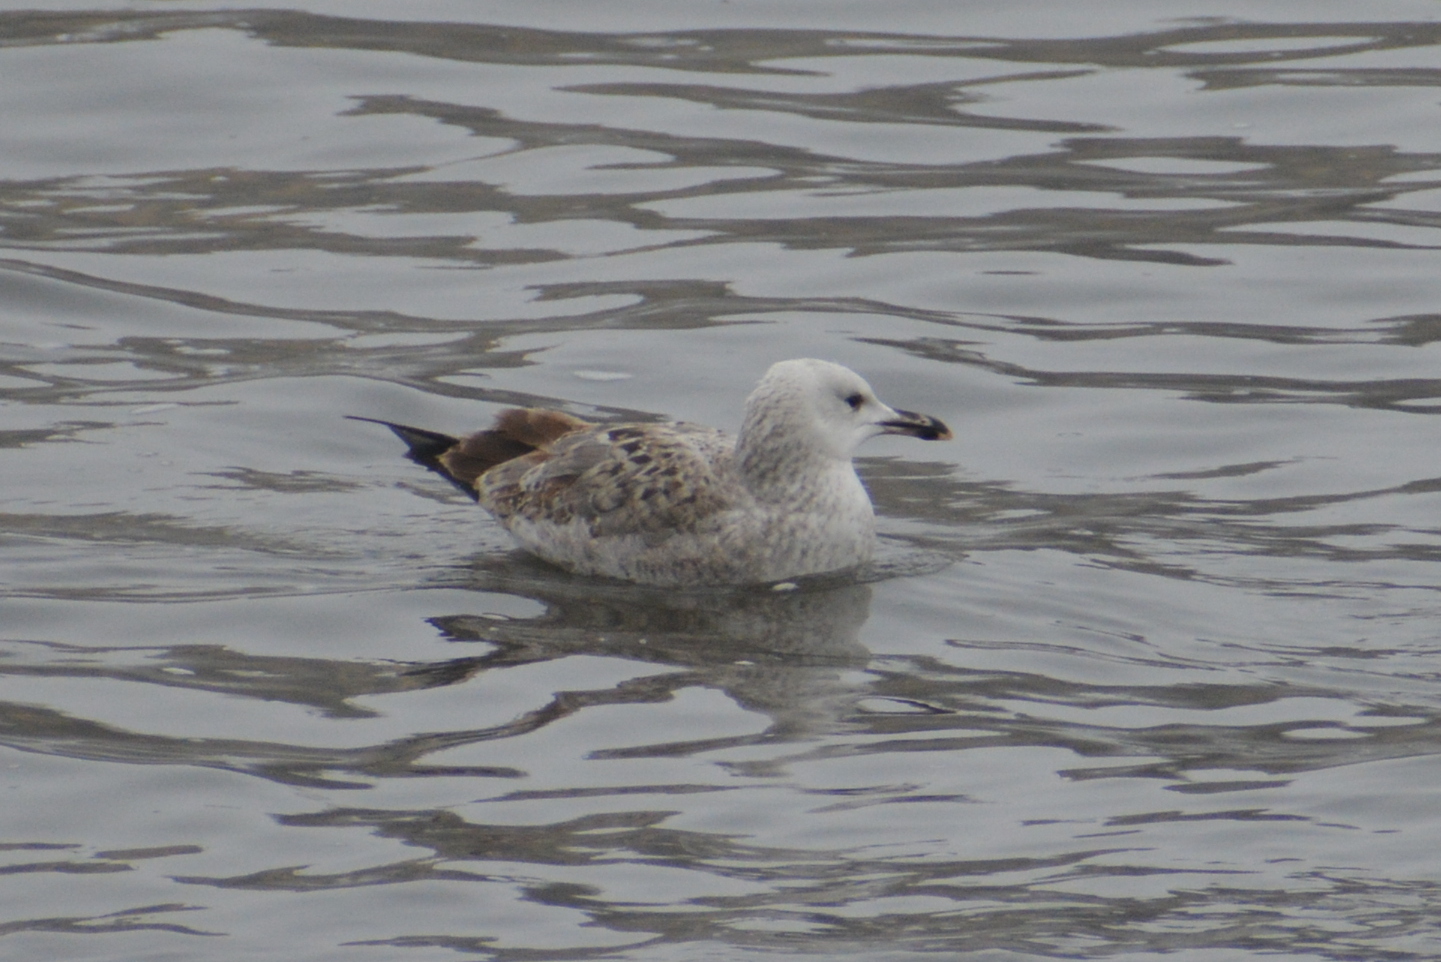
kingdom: Animalia
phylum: Chordata
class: Aves
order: Charadriiformes
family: Laridae
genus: Larus
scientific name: Larus cachinnans
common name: Caspian gull
